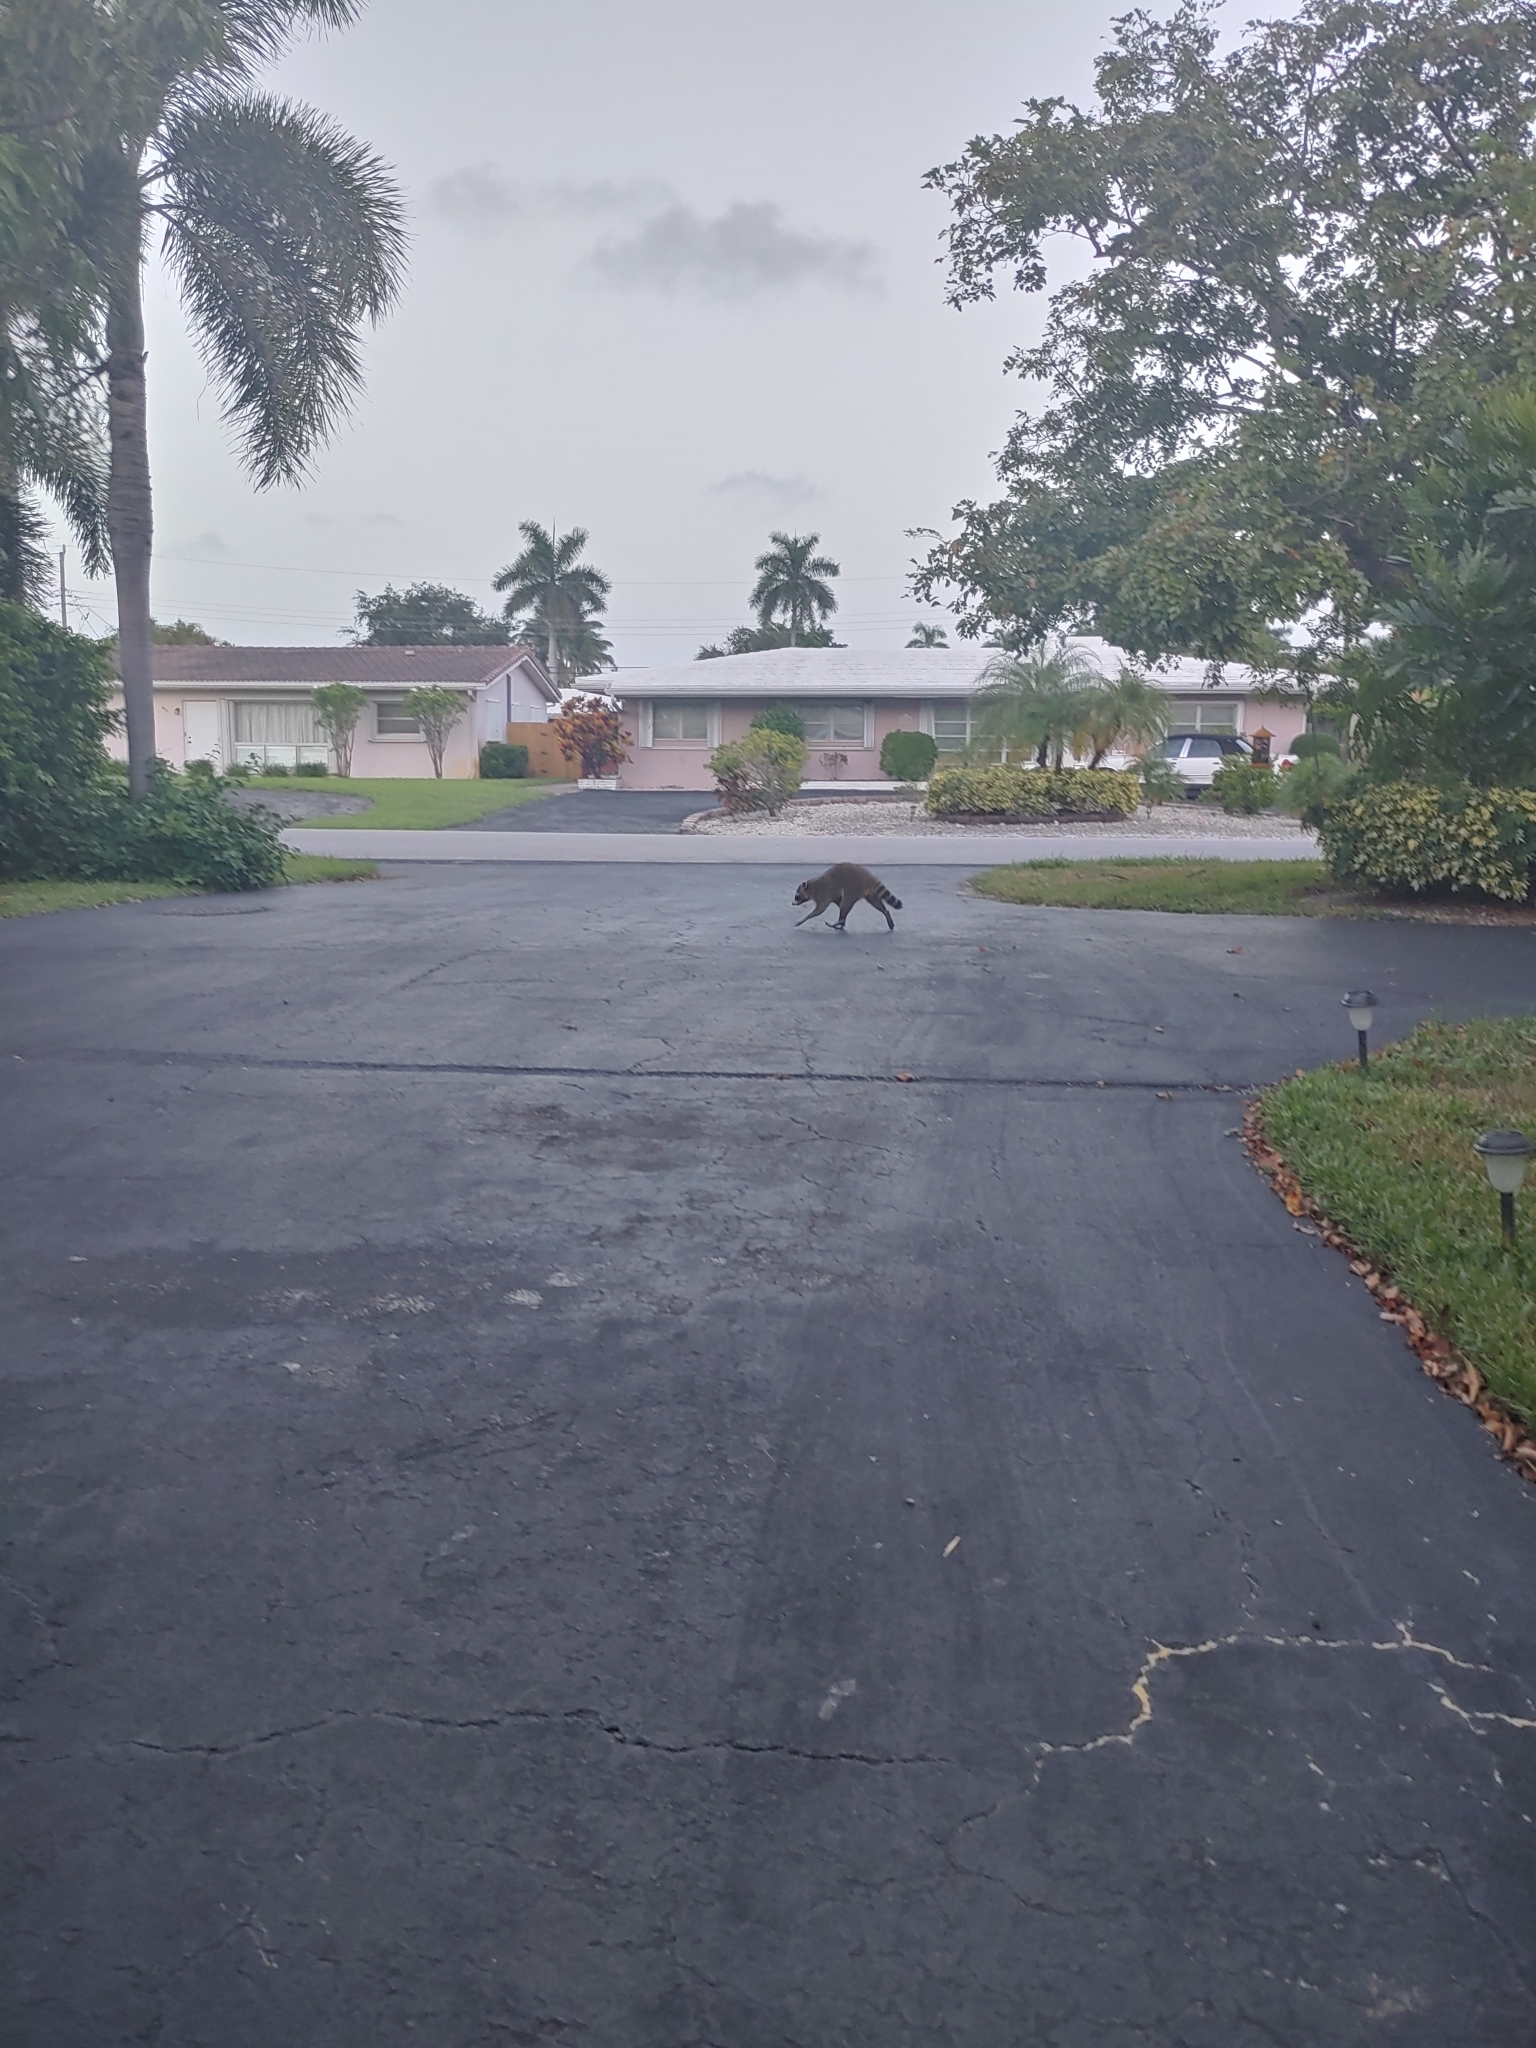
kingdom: Animalia
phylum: Chordata
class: Mammalia
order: Carnivora
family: Procyonidae
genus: Procyon
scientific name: Procyon lotor
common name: Raccoon
